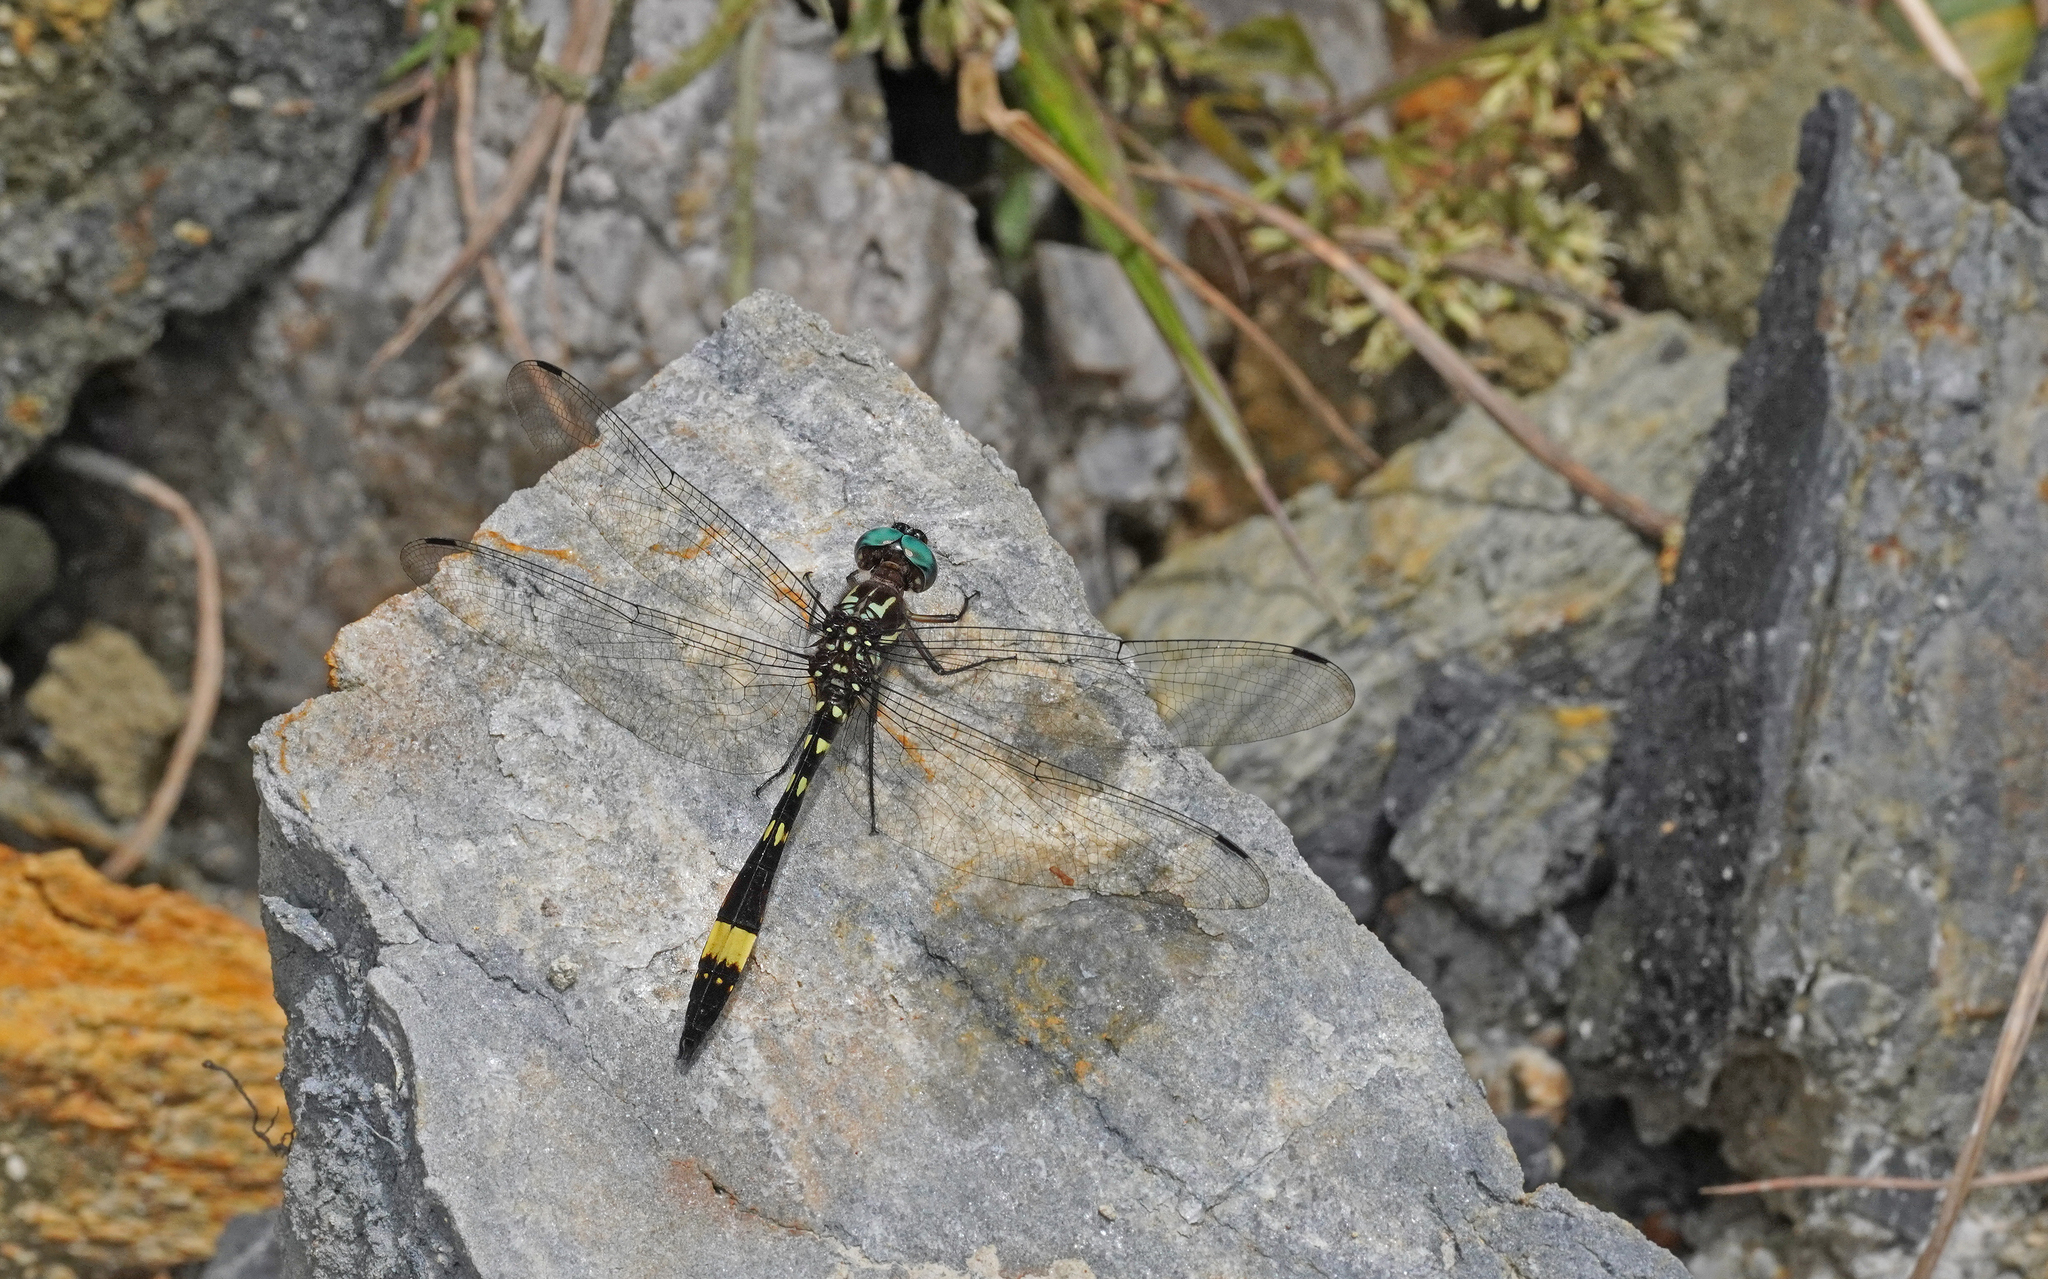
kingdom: Animalia
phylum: Arthropoda
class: Insecta
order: Odonata
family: Libellulidae
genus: Brechmorhoga
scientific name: Brechmorhoga rapax
